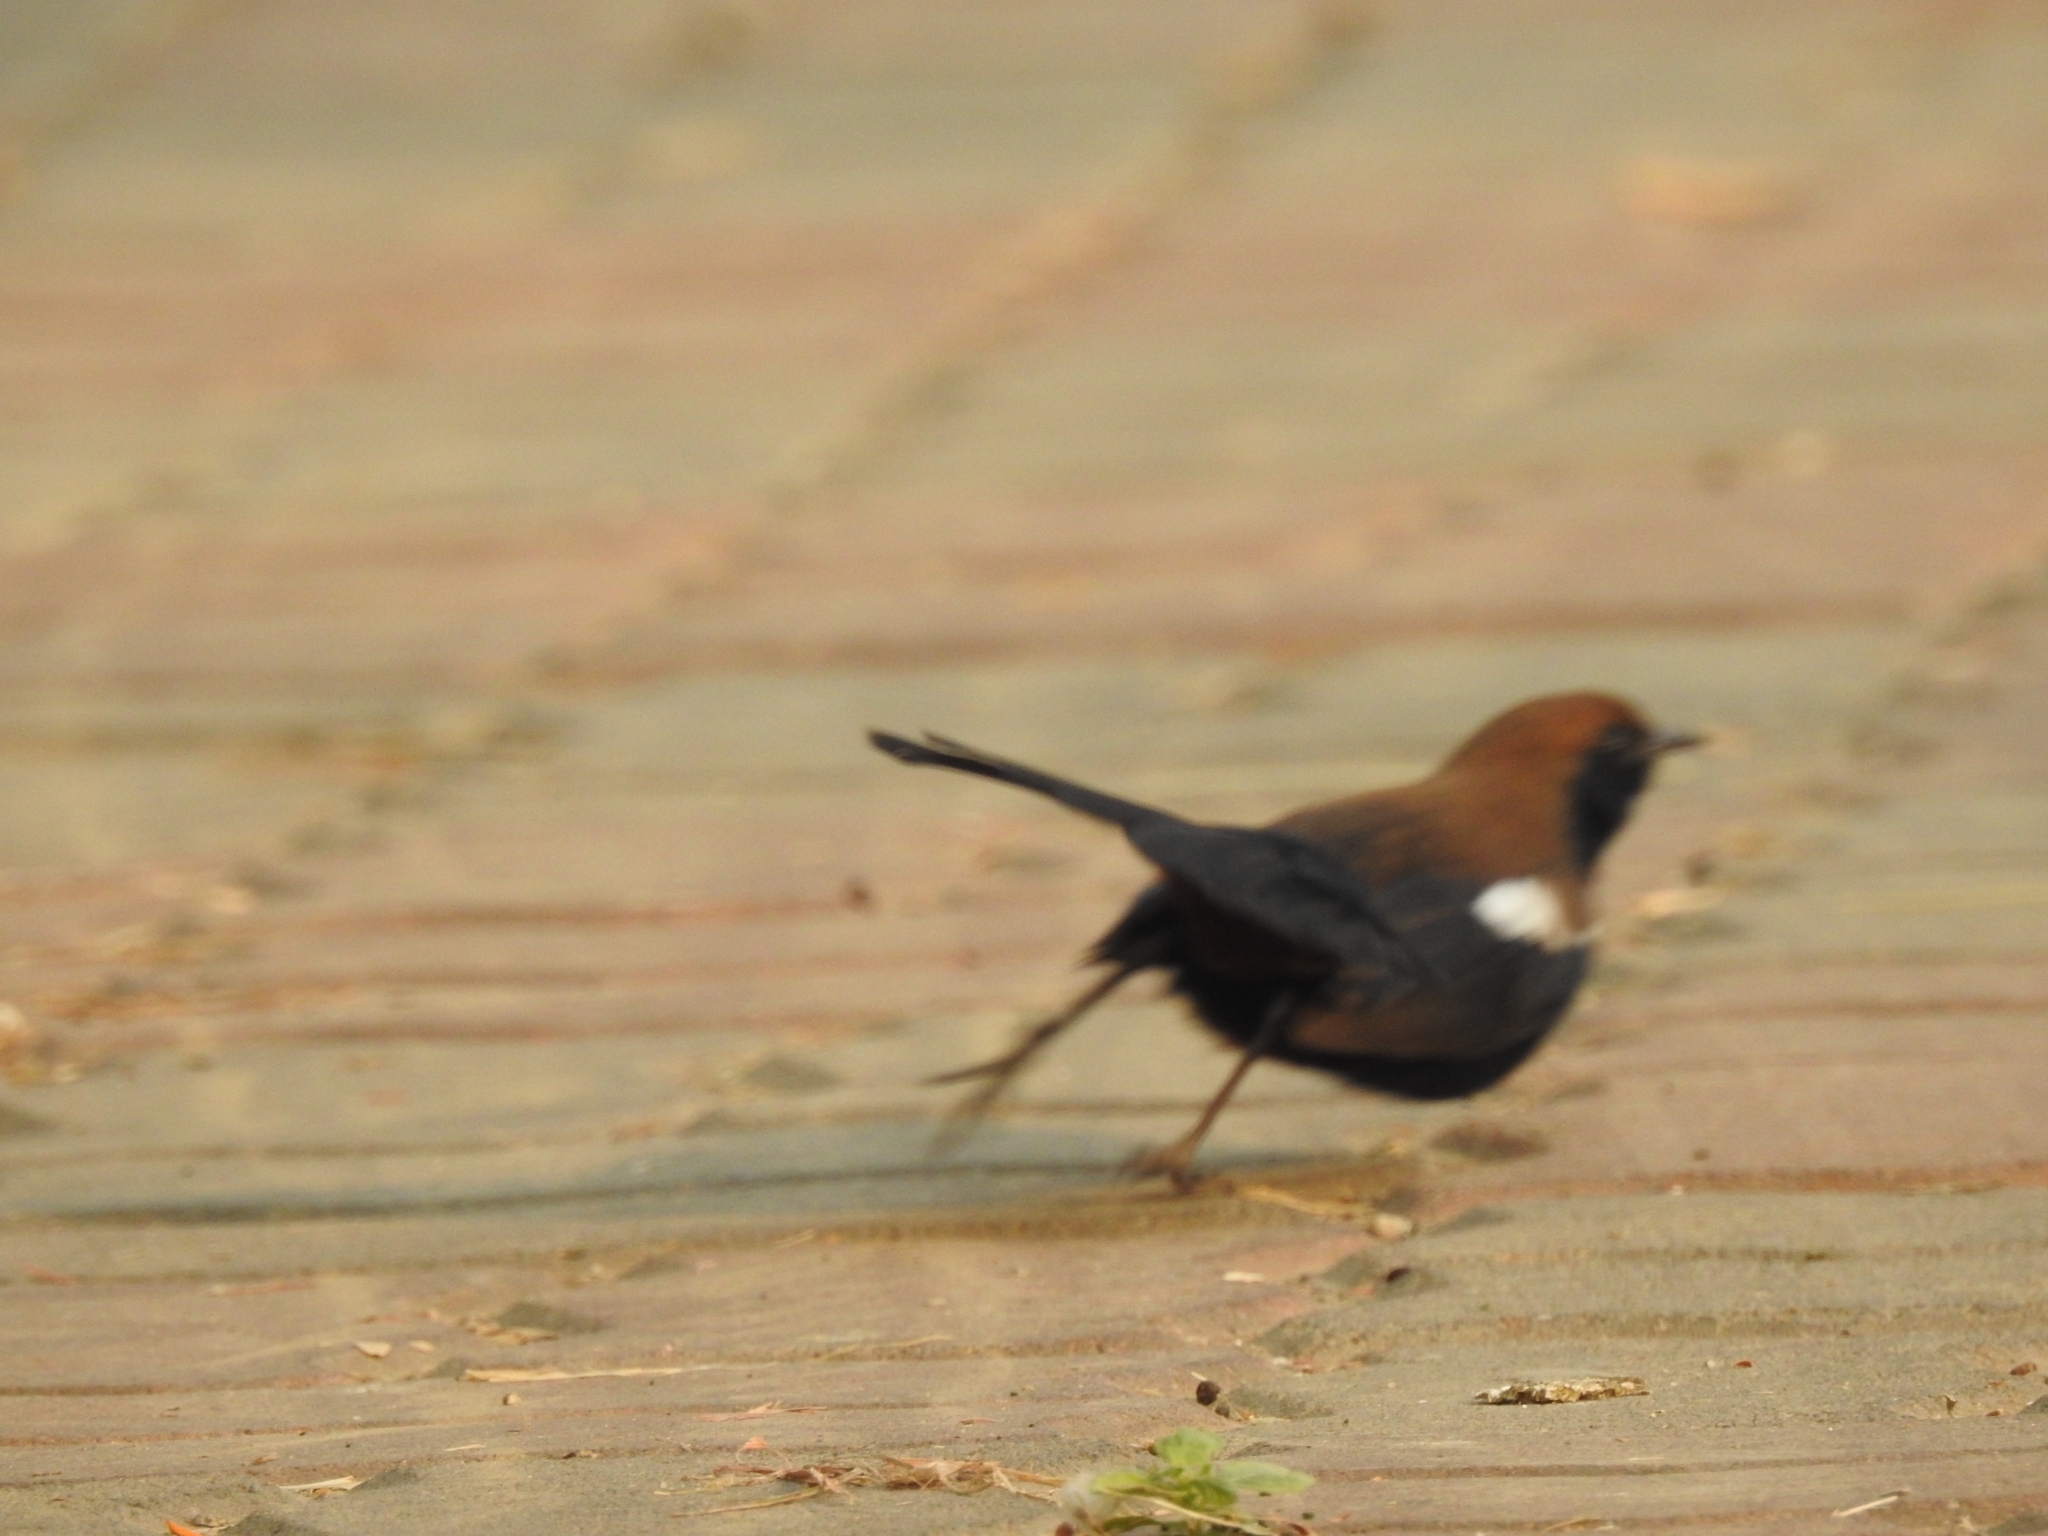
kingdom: Animalia
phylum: Chordata
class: Aves
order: Passeriformes
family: Muscicapidae
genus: Saxicoloides
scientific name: Saxicoloides fulicatus
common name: Indian robin
